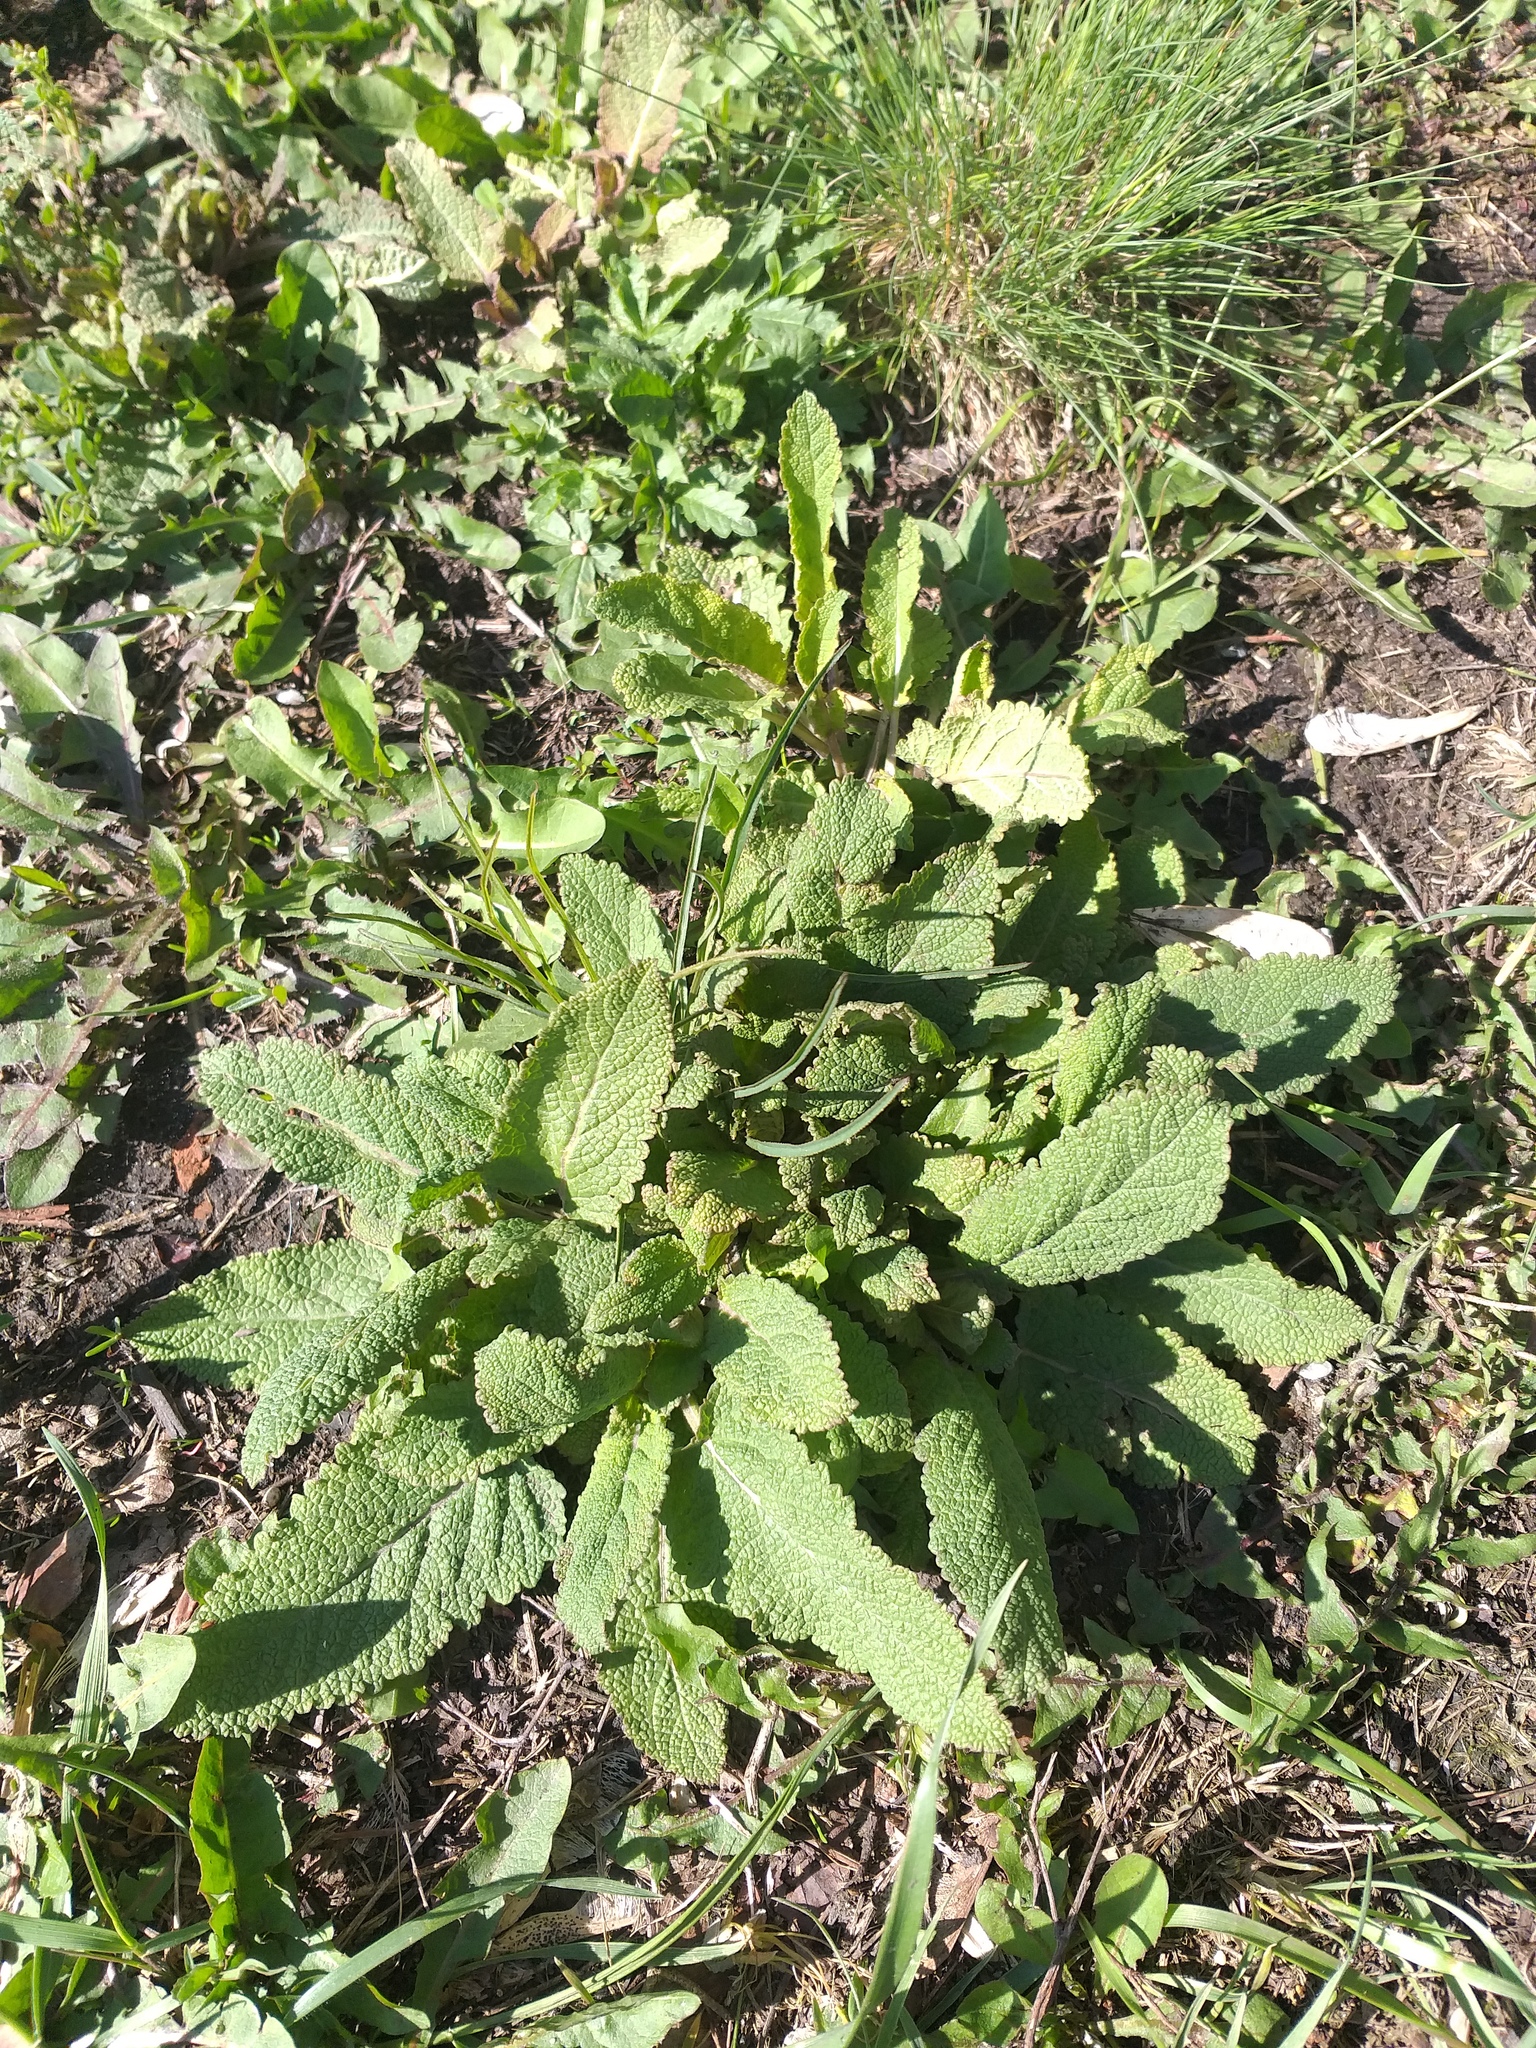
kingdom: Plantae
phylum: Tracheophyta
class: Magnoliopsida
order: Lamiales
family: Lamiaceae
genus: Salvia
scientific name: Salvia nemorosa
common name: Balkan clary
